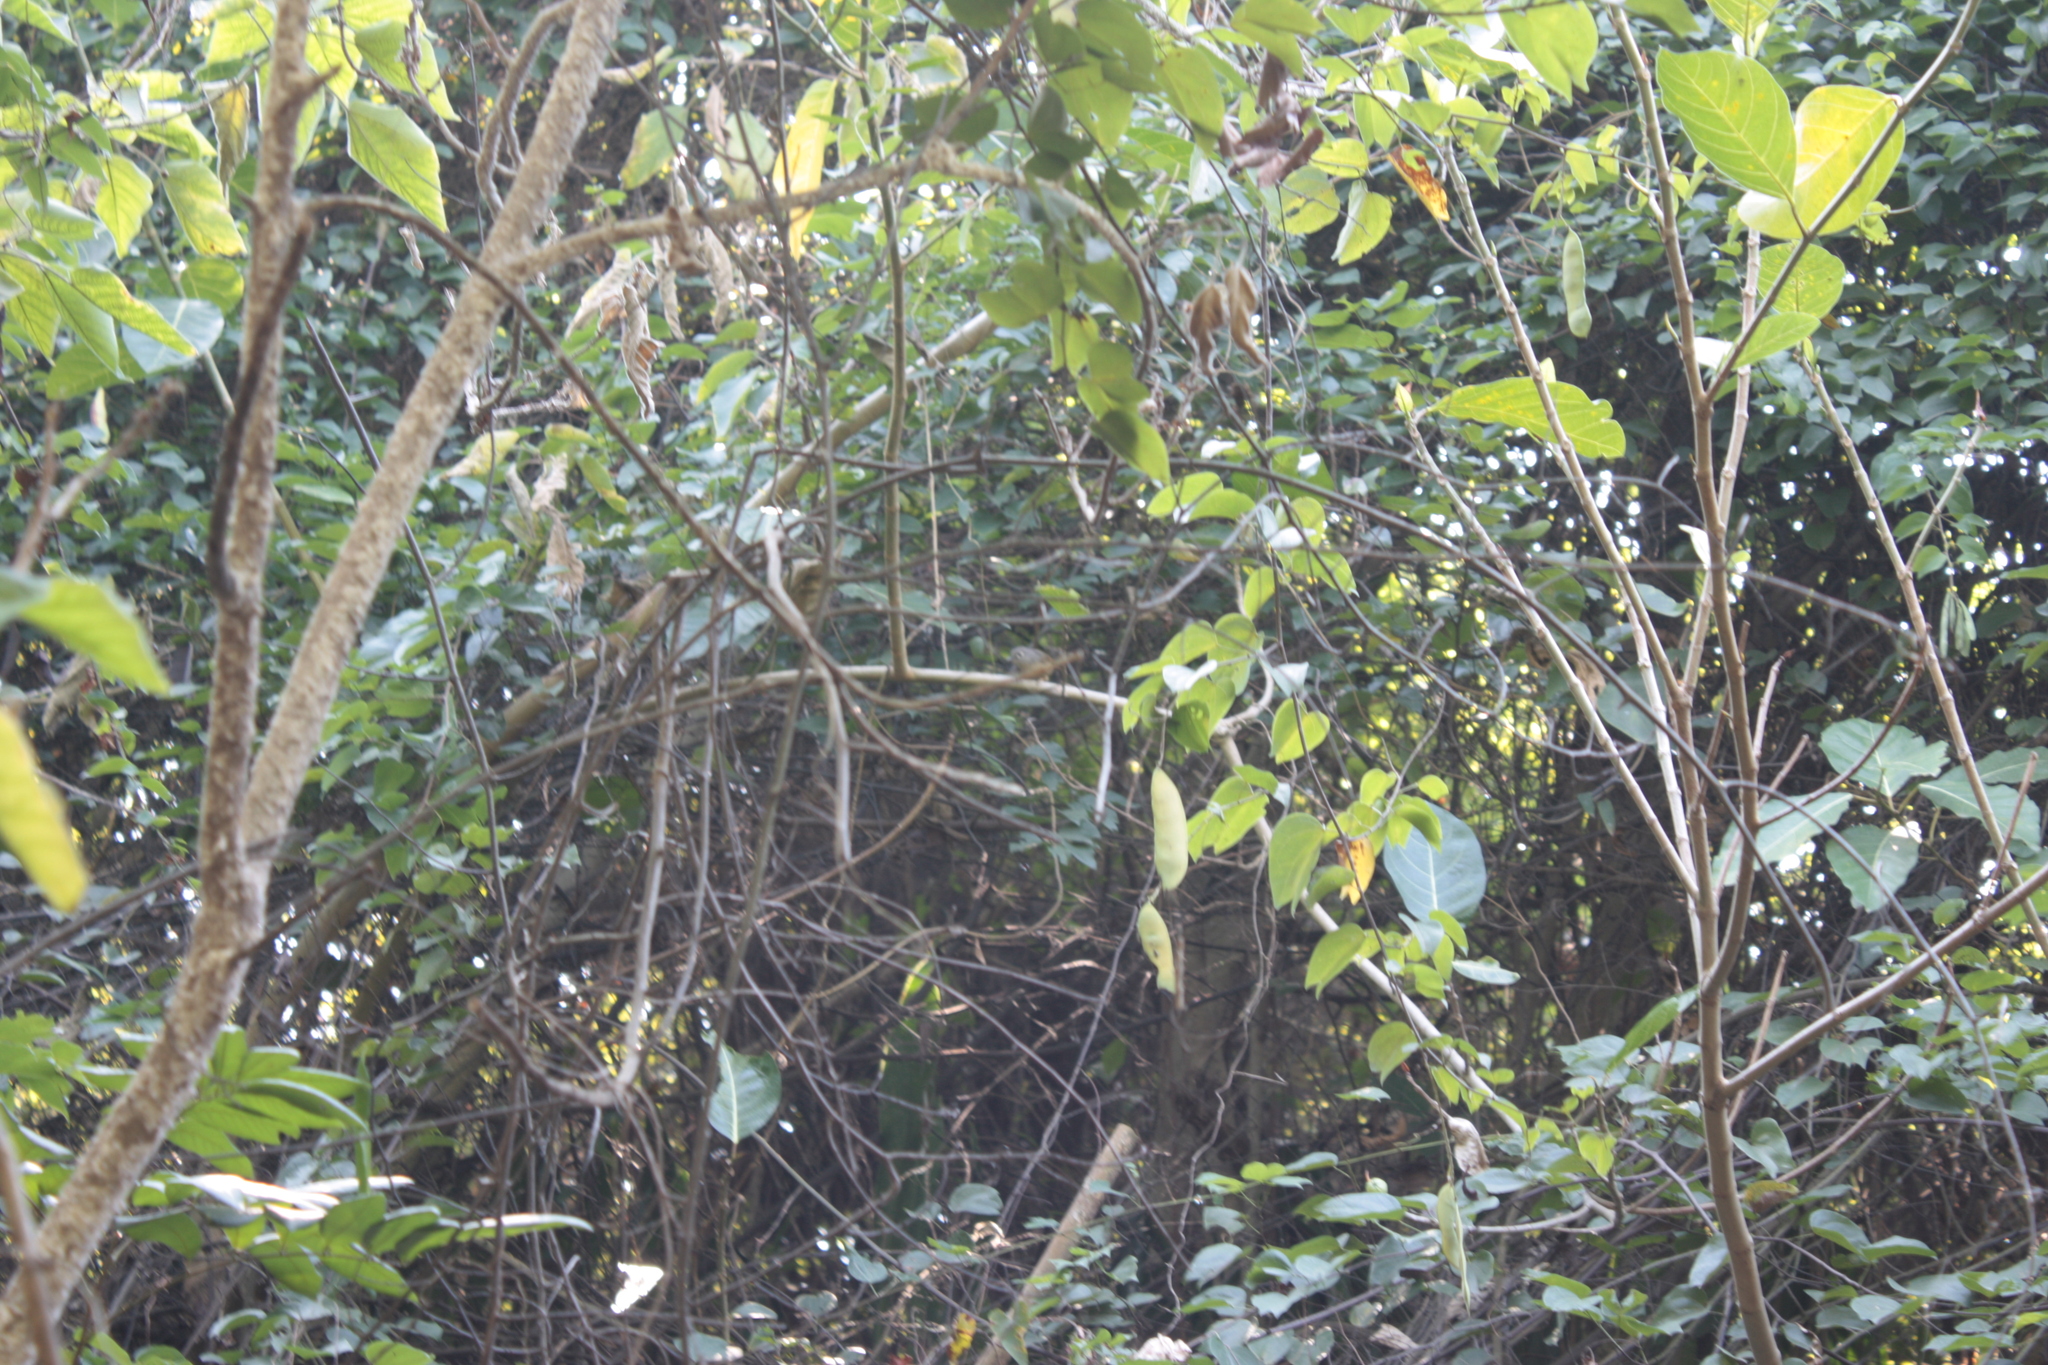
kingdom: Animalia
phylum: Chordata
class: Aves
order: Passeriformes
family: Pellorneidae
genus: Alcippe
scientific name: Alcippe morrisonia
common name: Grey-cheeked fulvetta
